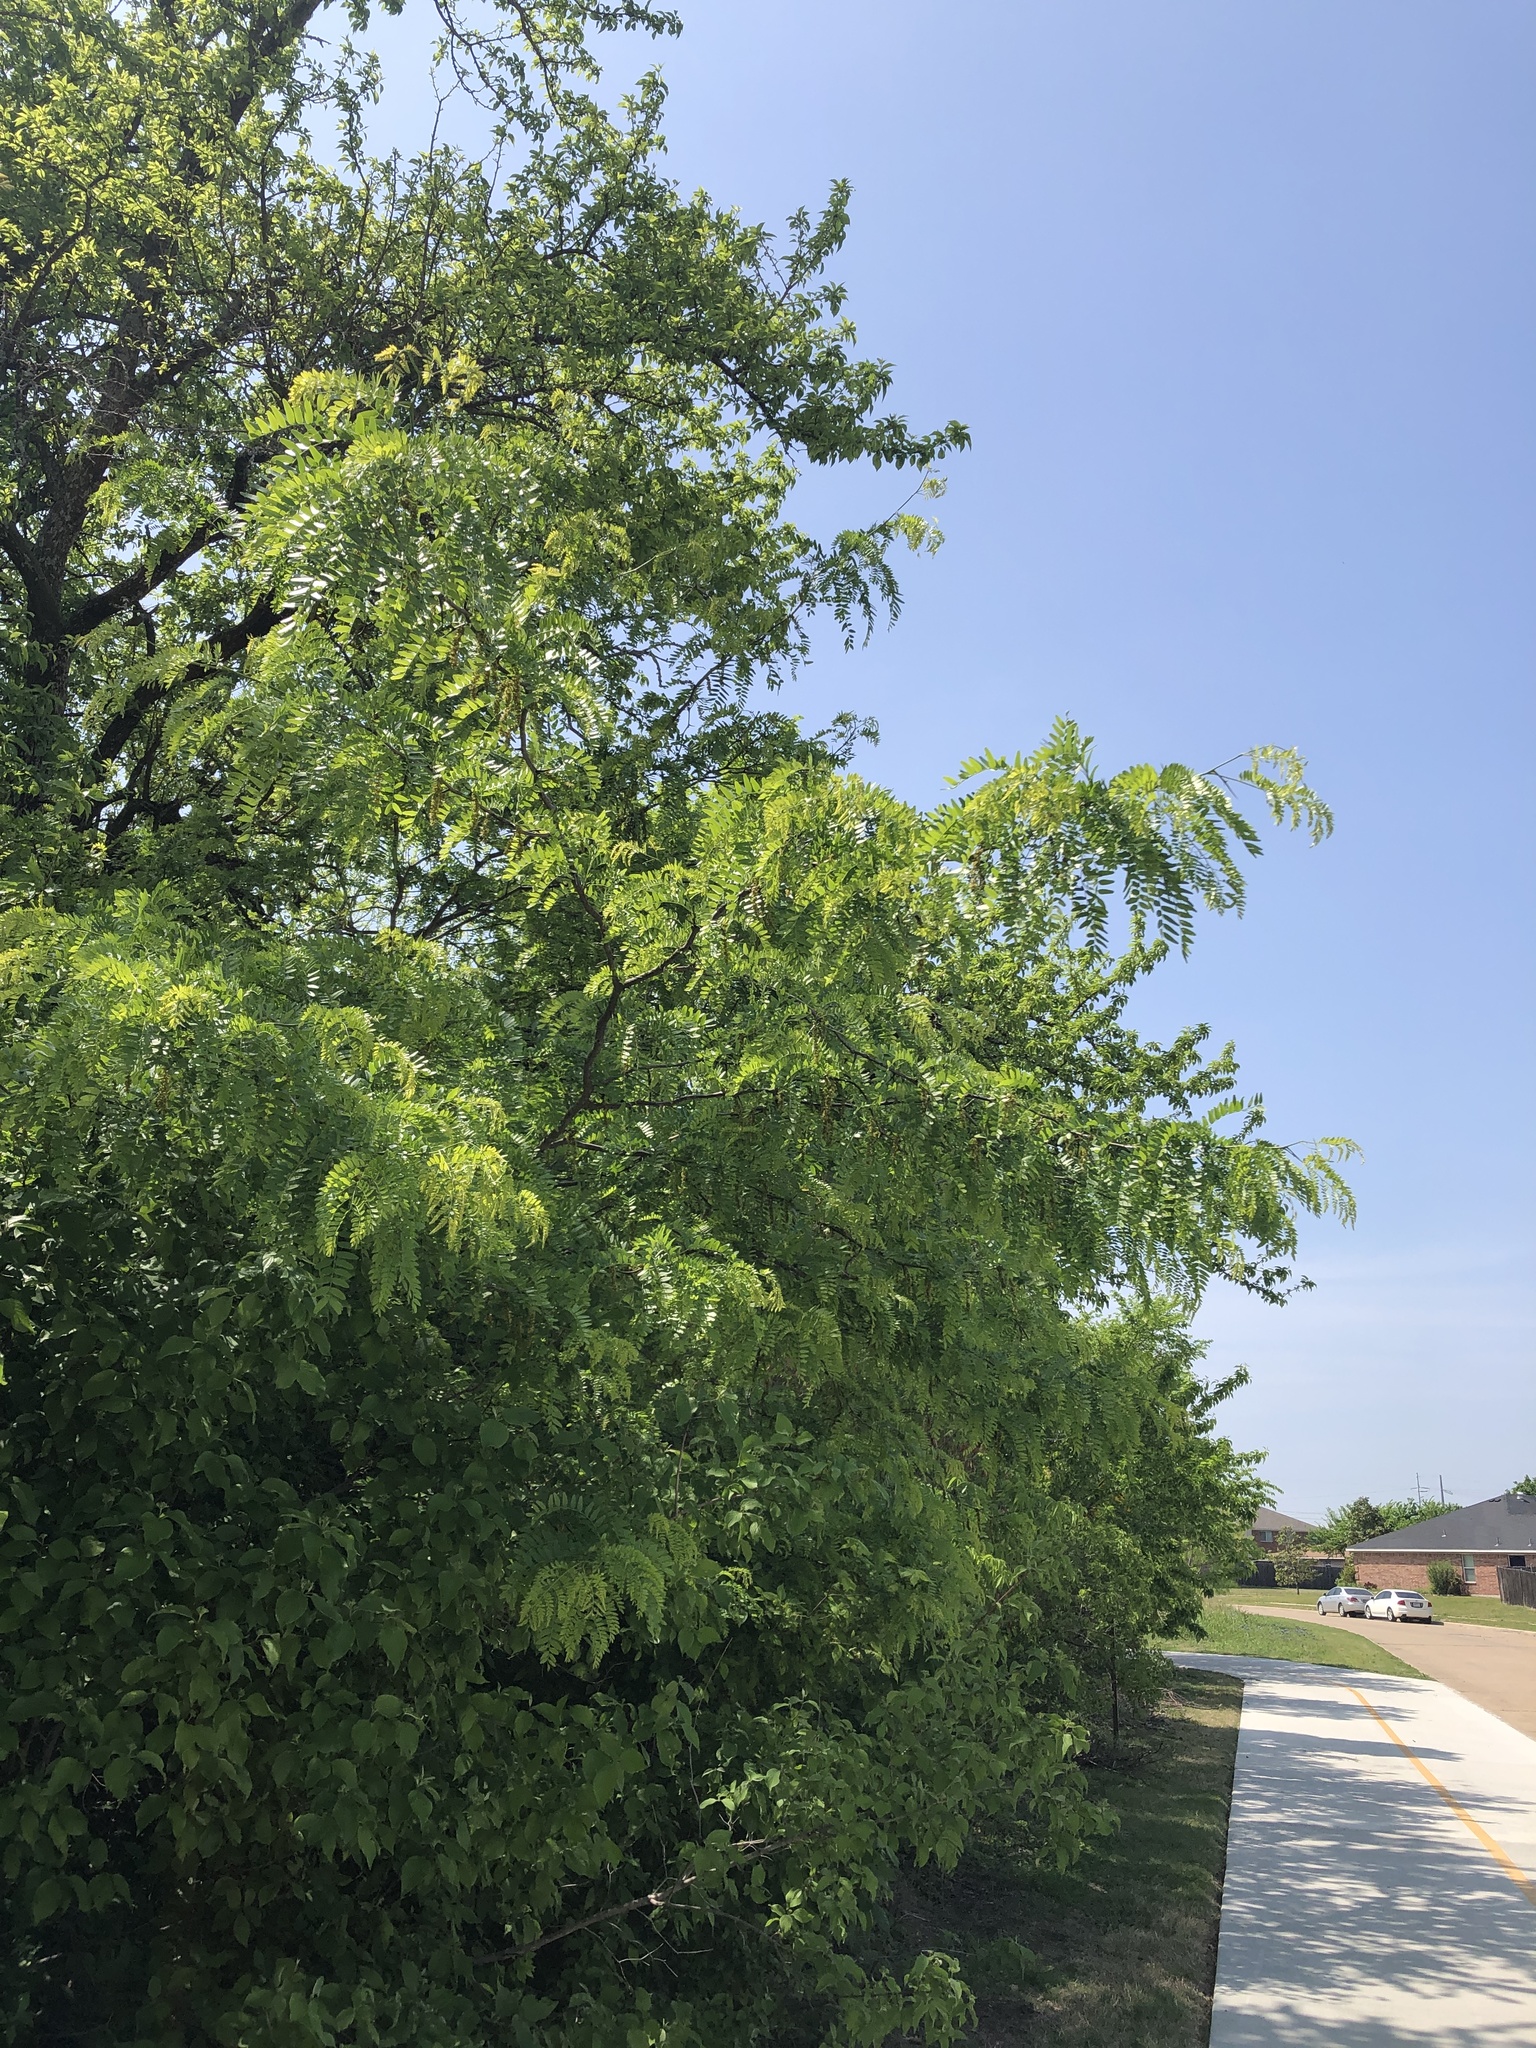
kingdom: Plantae
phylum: Tracheophyta
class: Magnoliopsida
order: Fabales
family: Fabaceae
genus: Gleditsia
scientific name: Gleditsia triacanthos
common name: Common honeylocust
